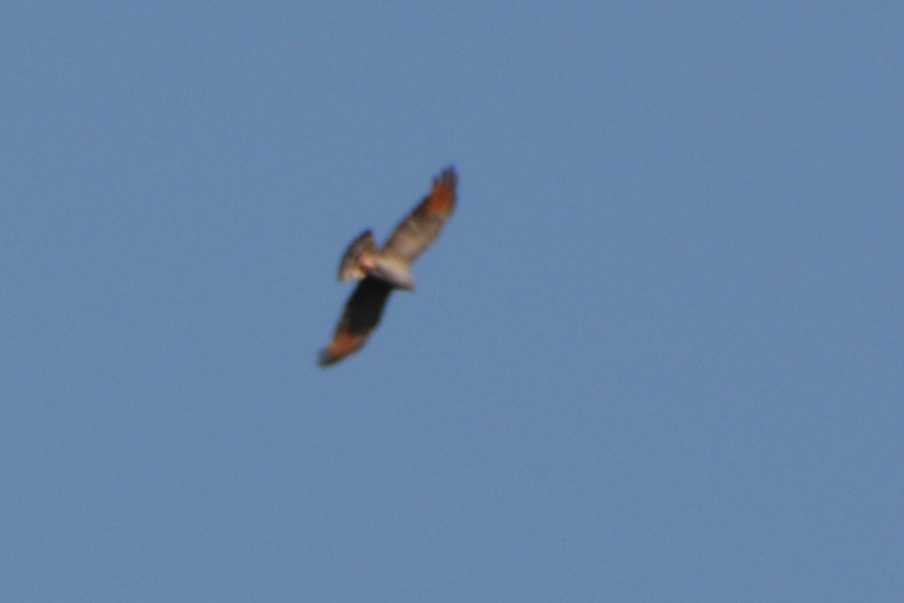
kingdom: Animalia
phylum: Chordata
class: Aves
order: Accipitriformes
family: Accipitridae
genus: Ictinia
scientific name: Ictinia plumbea
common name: Plumbeous kite
